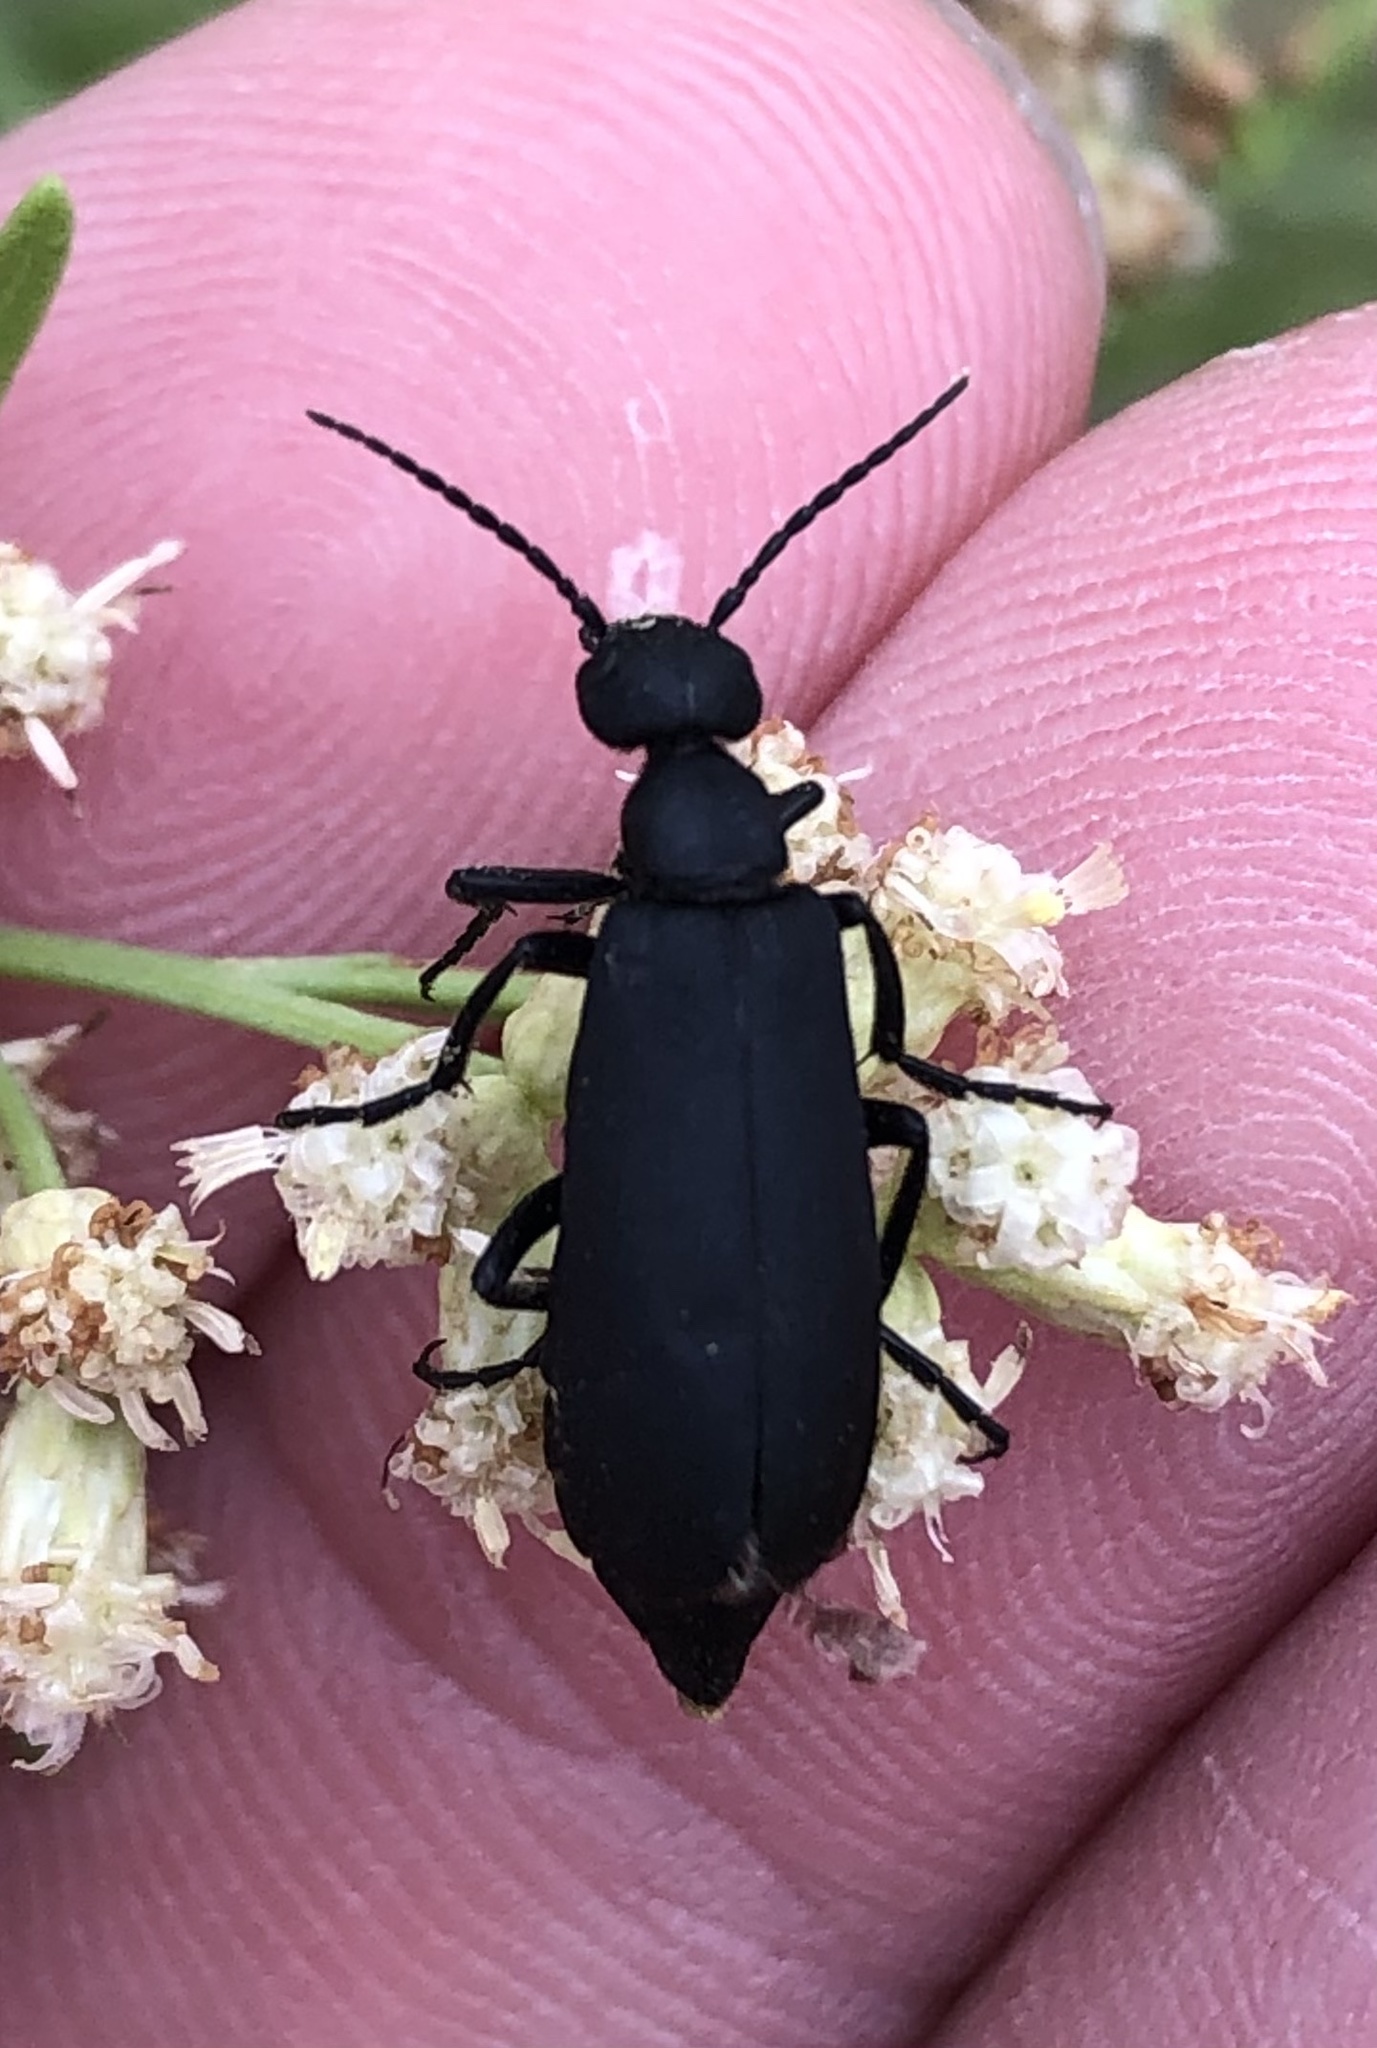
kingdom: Animalia
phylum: Arthropoda
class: Insecta
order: Coleoptera
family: Meloidae
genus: Epicauta
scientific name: Epicauta pensylvanica
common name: Black blister beetle
